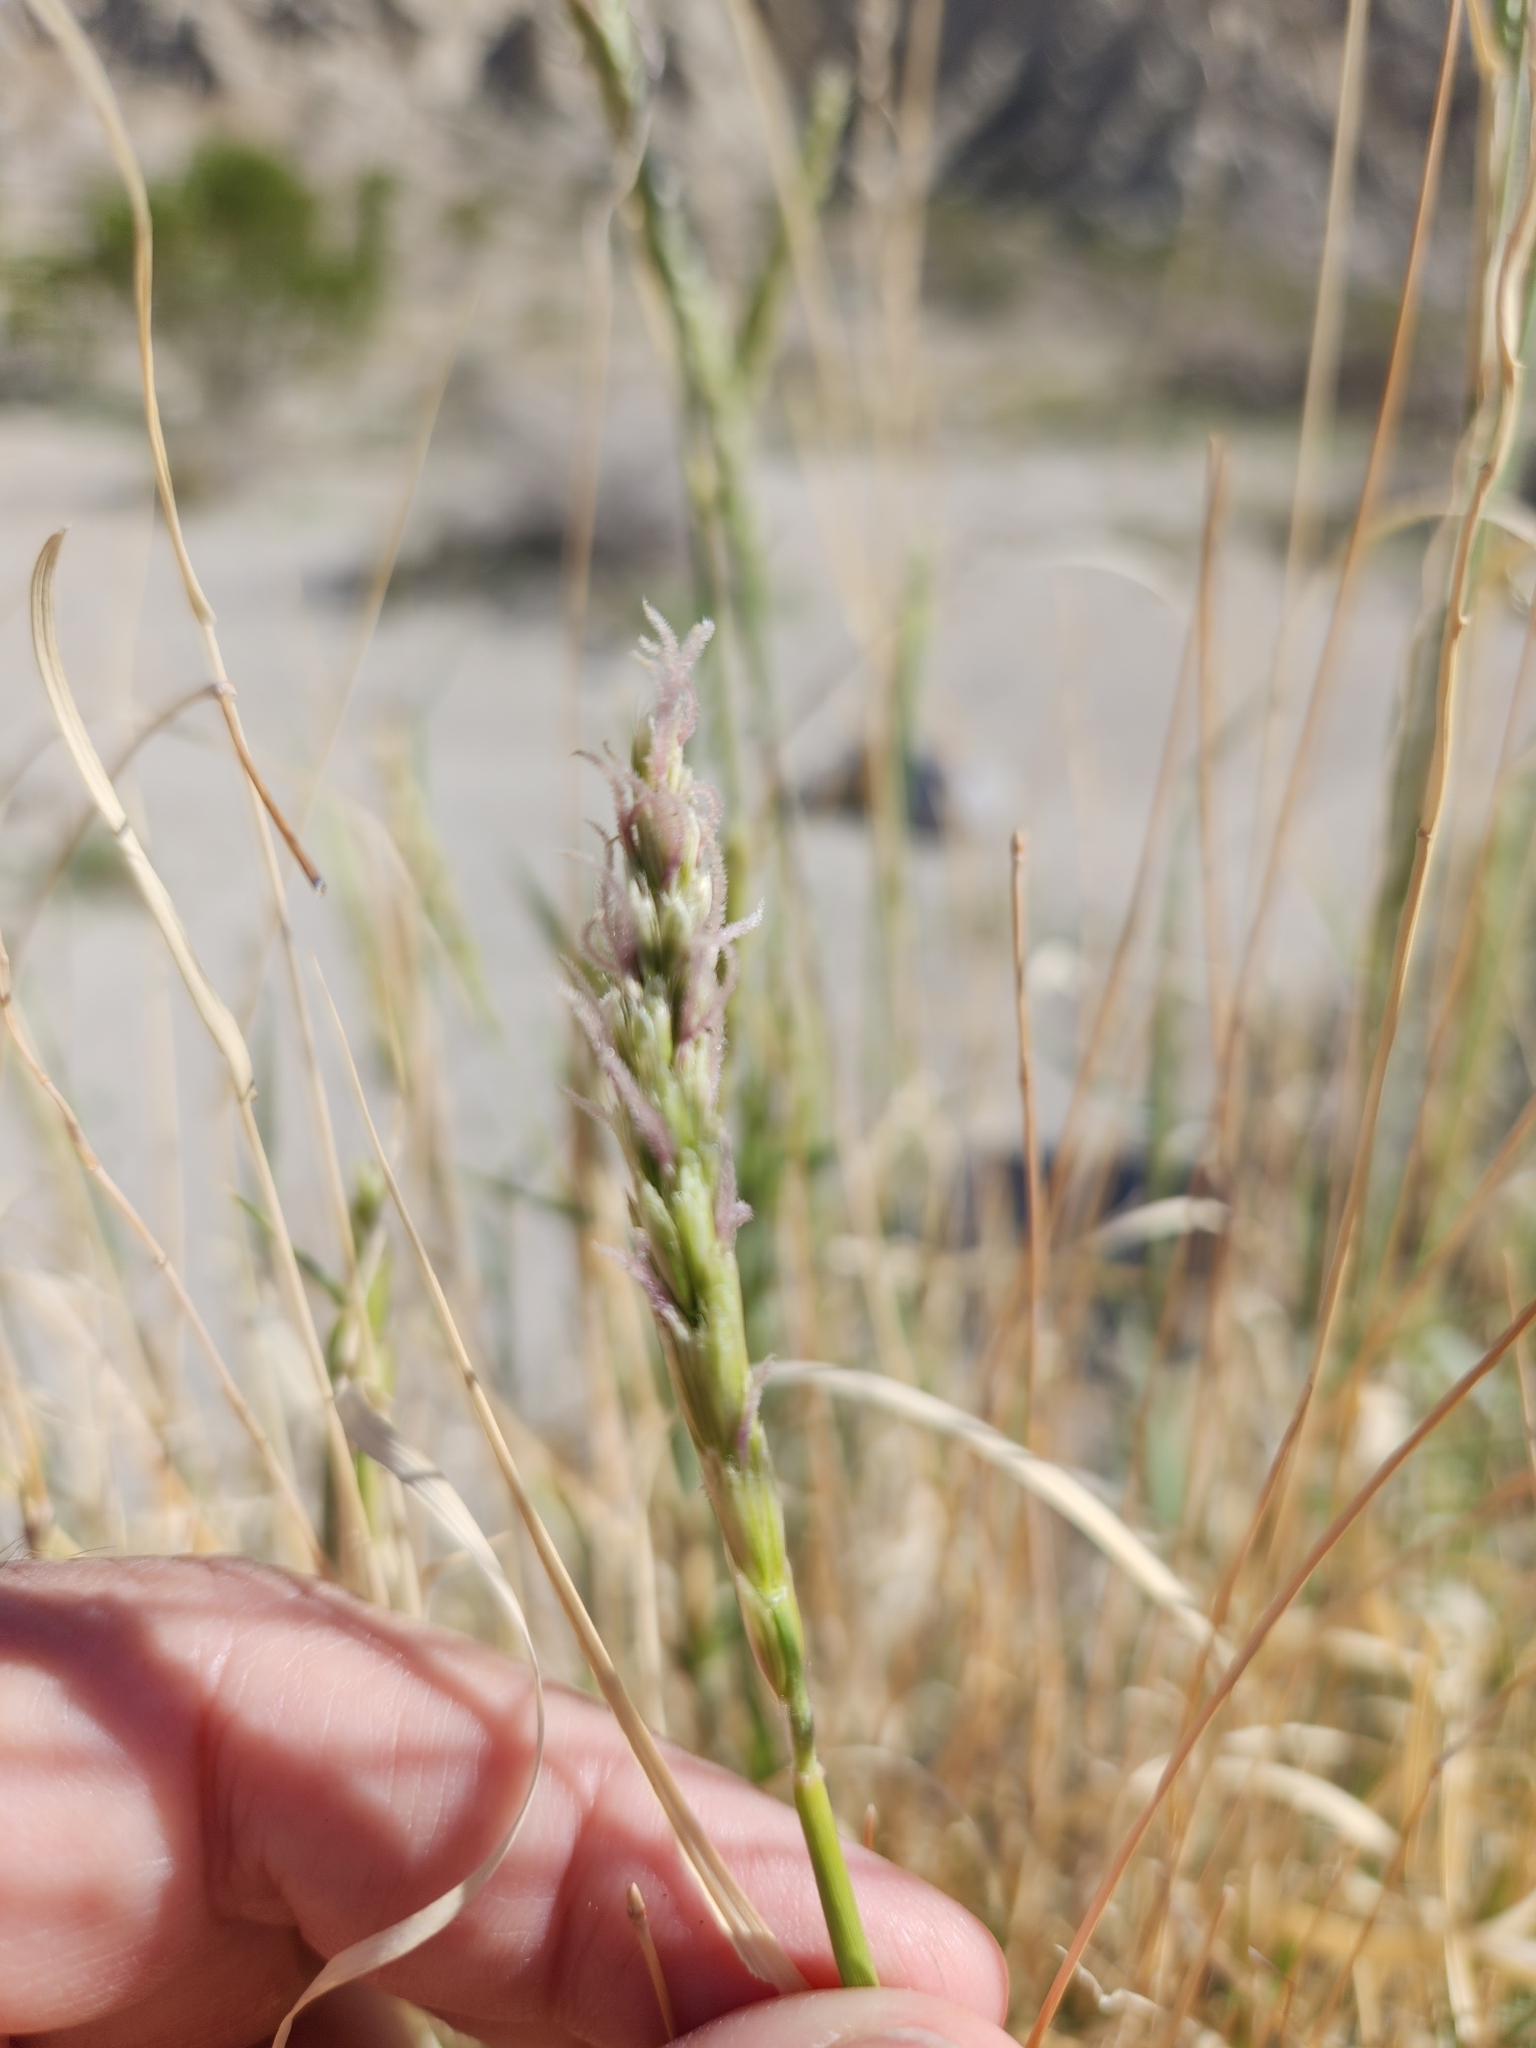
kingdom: Plantae
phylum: Tracheophyta
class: Liliopsida
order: Poales
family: Poaceae
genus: Hilaria
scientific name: Hilaria rigida
